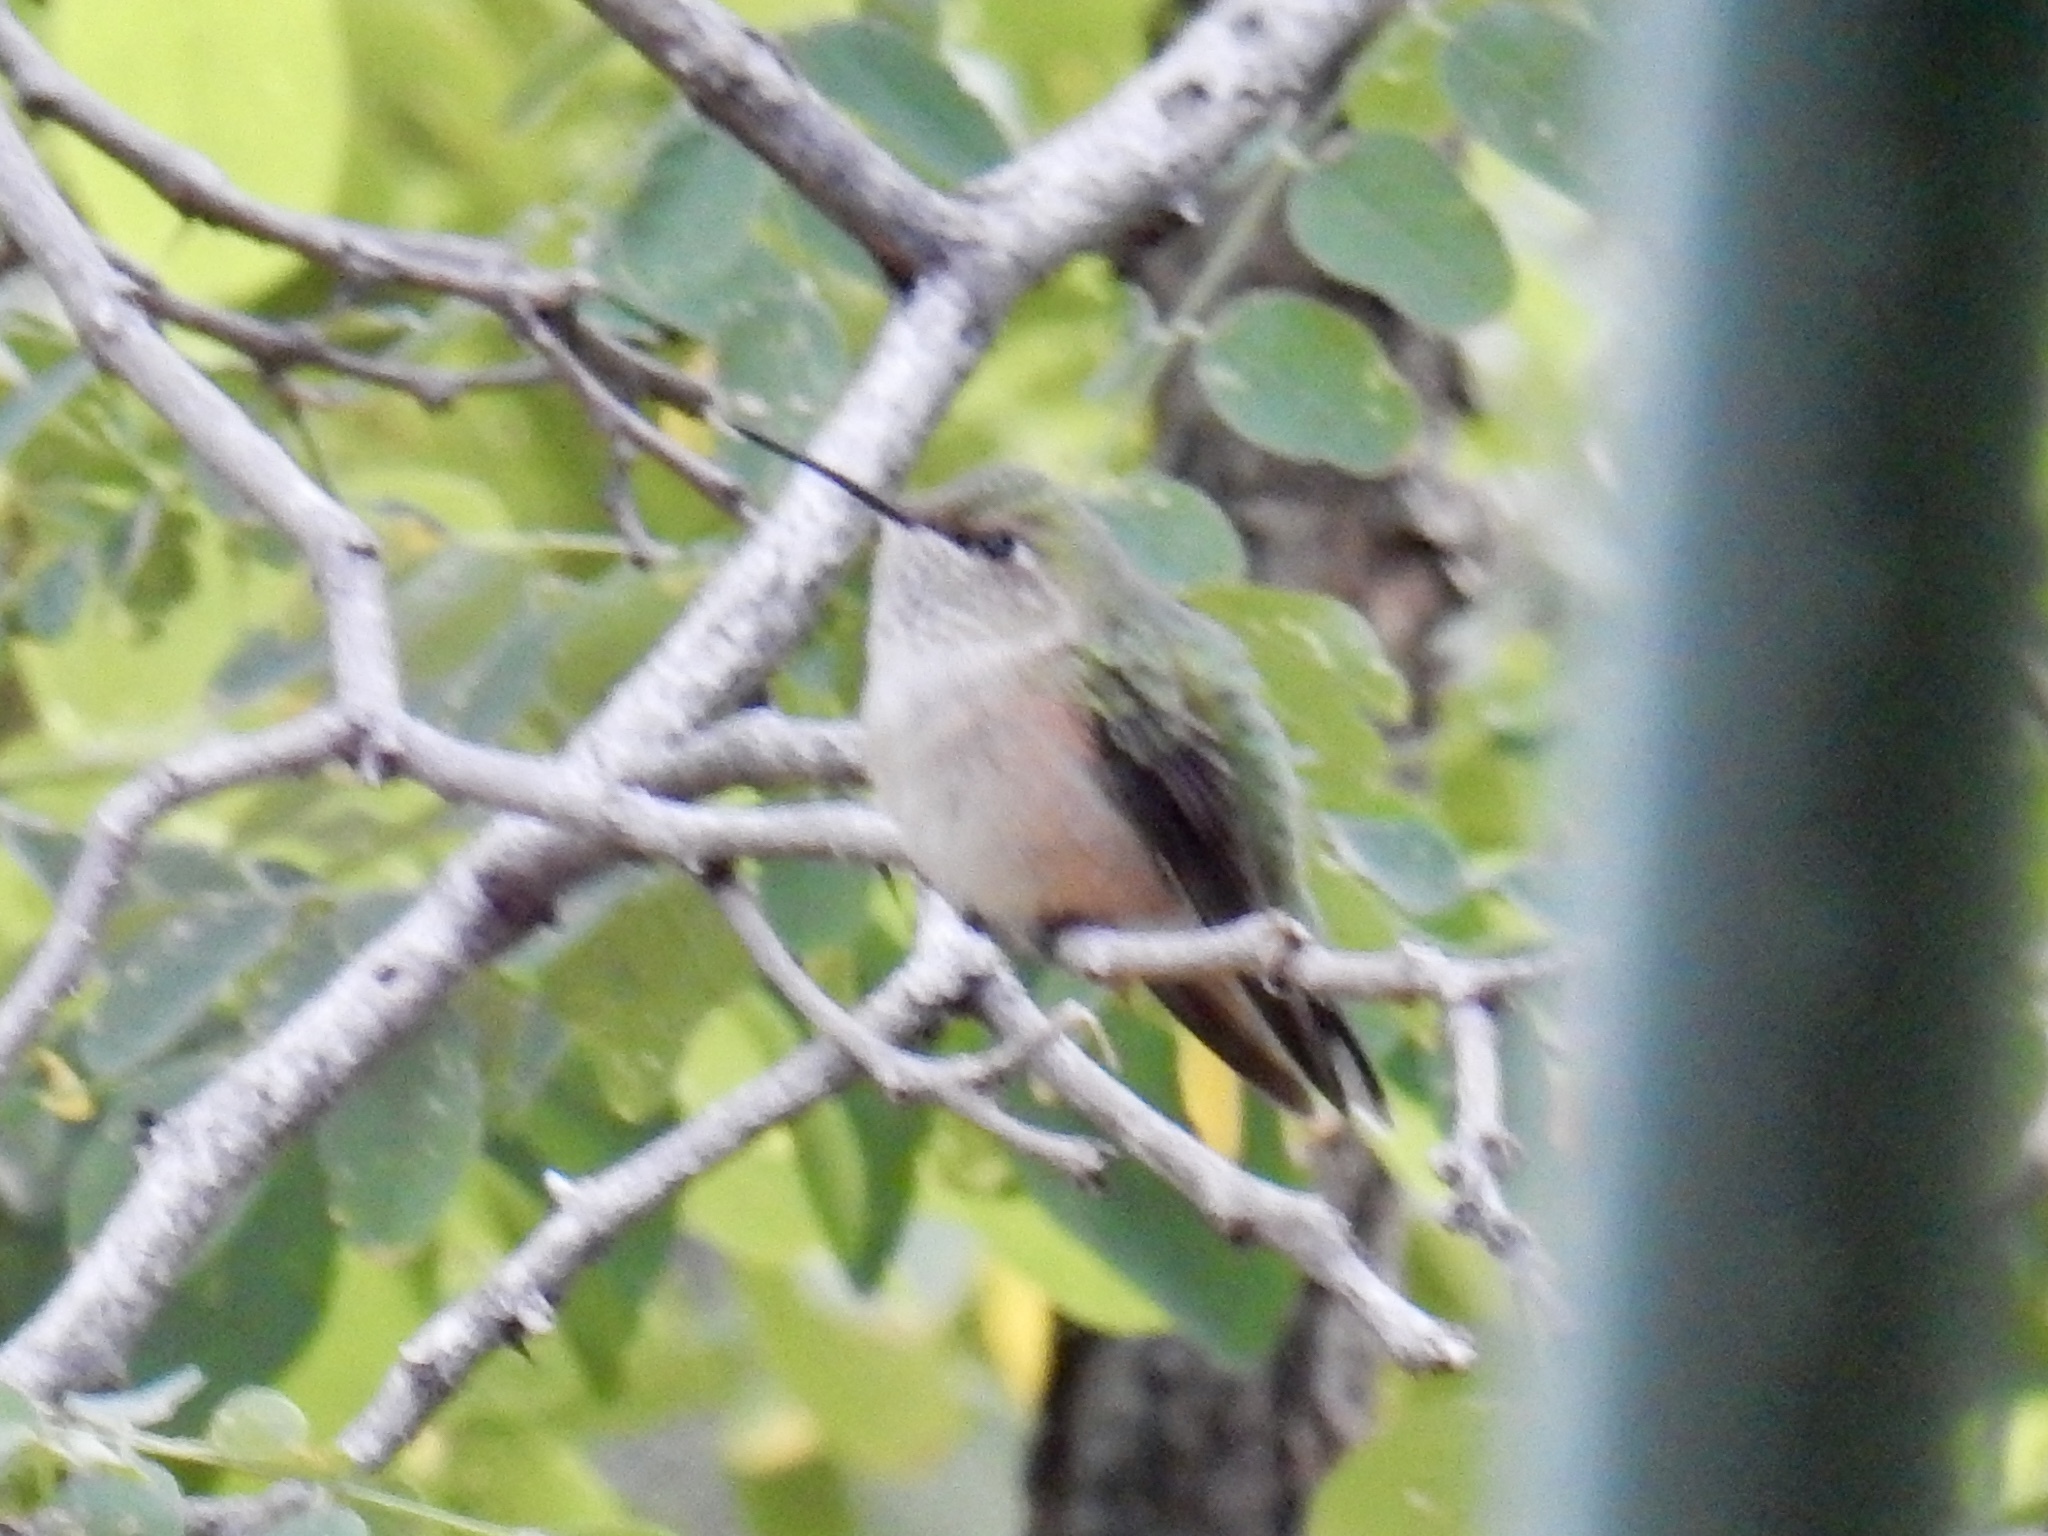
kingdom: Animalia
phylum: Chordata
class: Aves
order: Apodiformes
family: Trochilidae
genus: Selasphorus
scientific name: Selasphorus platycercus
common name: Broad-tailed hummingbird
